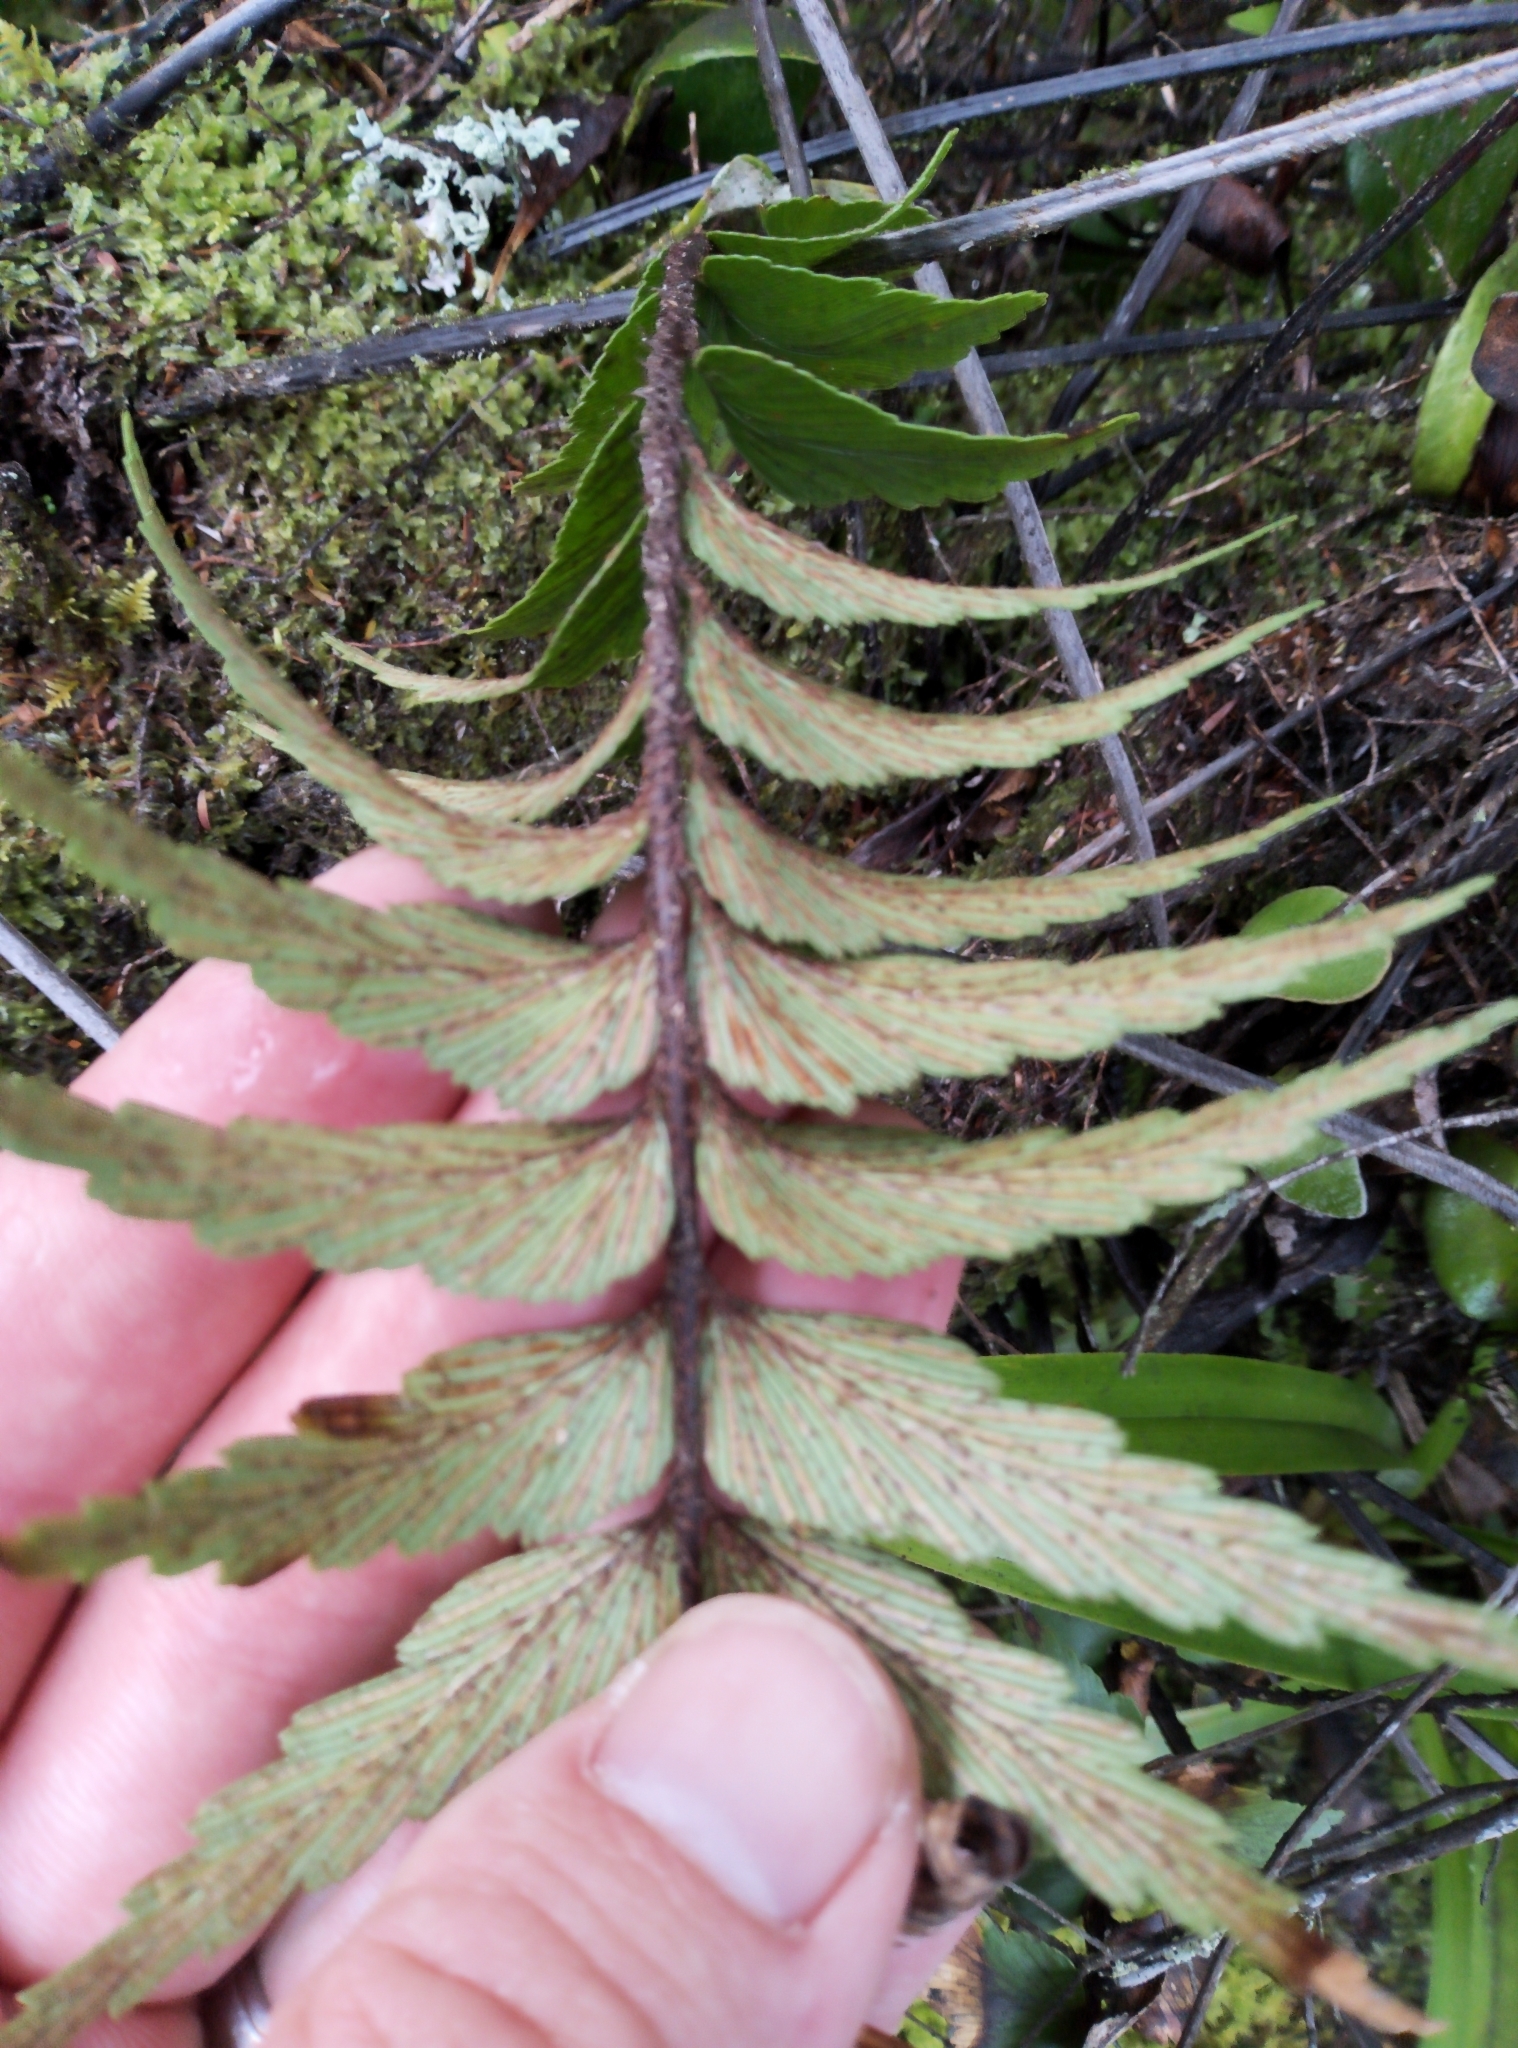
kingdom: Plantae
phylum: Tracheophyta
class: Polypodiopsida
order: Polypodiales
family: Aspleniaceae
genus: Asplenium
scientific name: Asplenium polyodon
